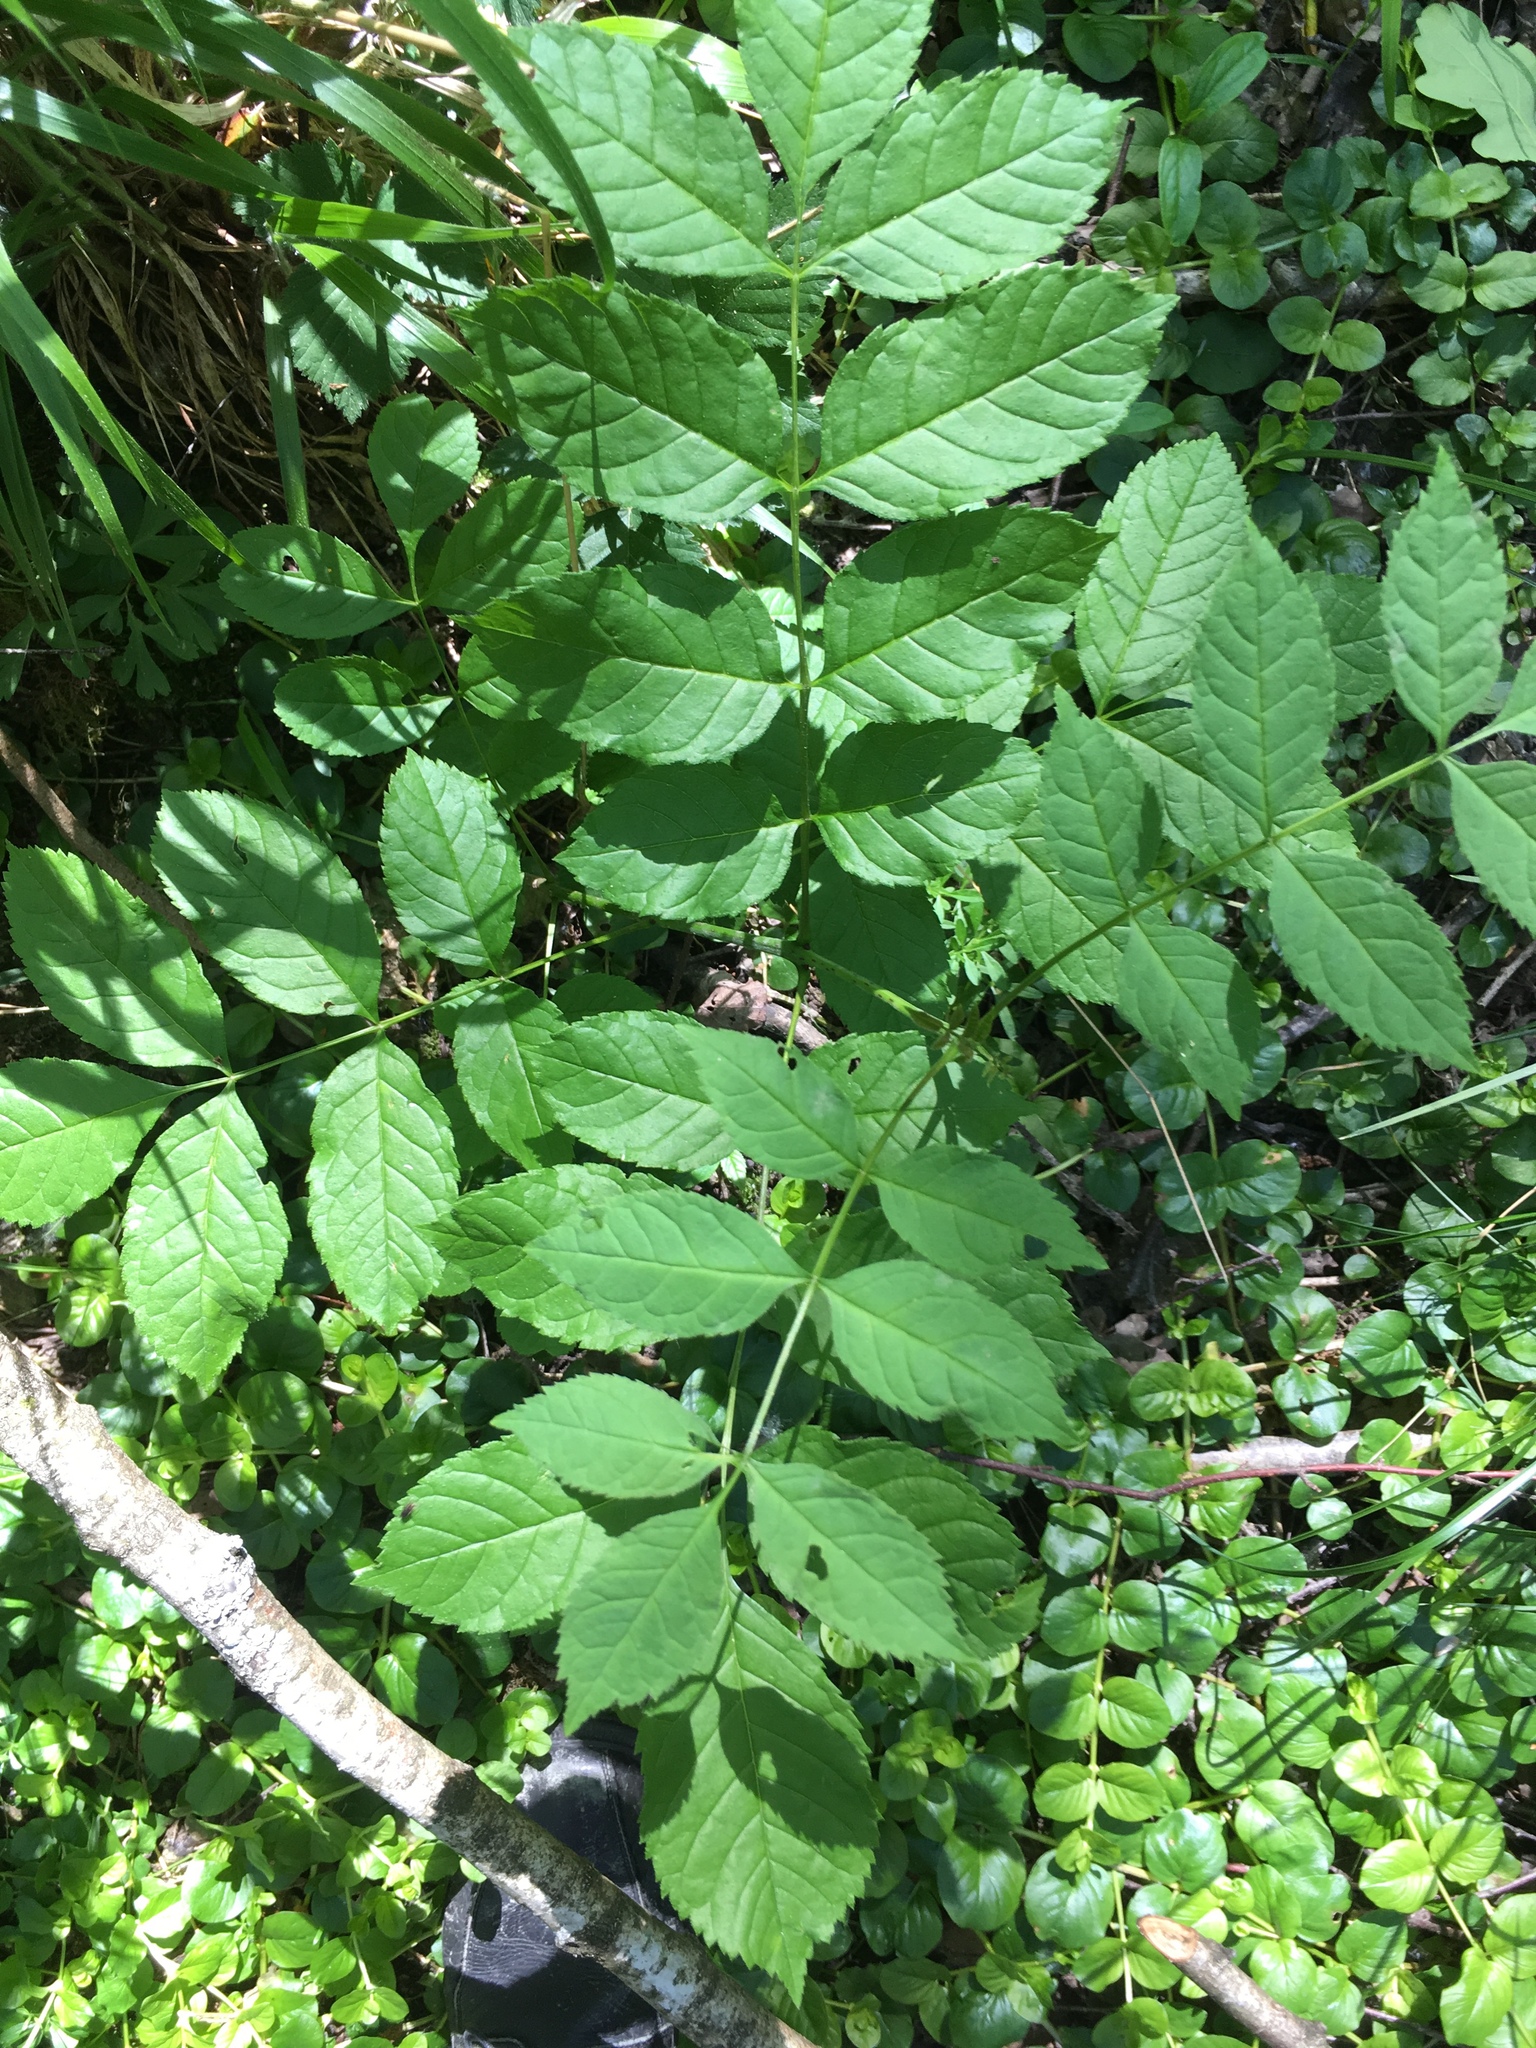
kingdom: Plantae
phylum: Tracheophyta
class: Magnoliopsida
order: Lamiales
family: Oleaceae
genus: Fraxinus
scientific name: Fraxinus excelsior
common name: European ash
